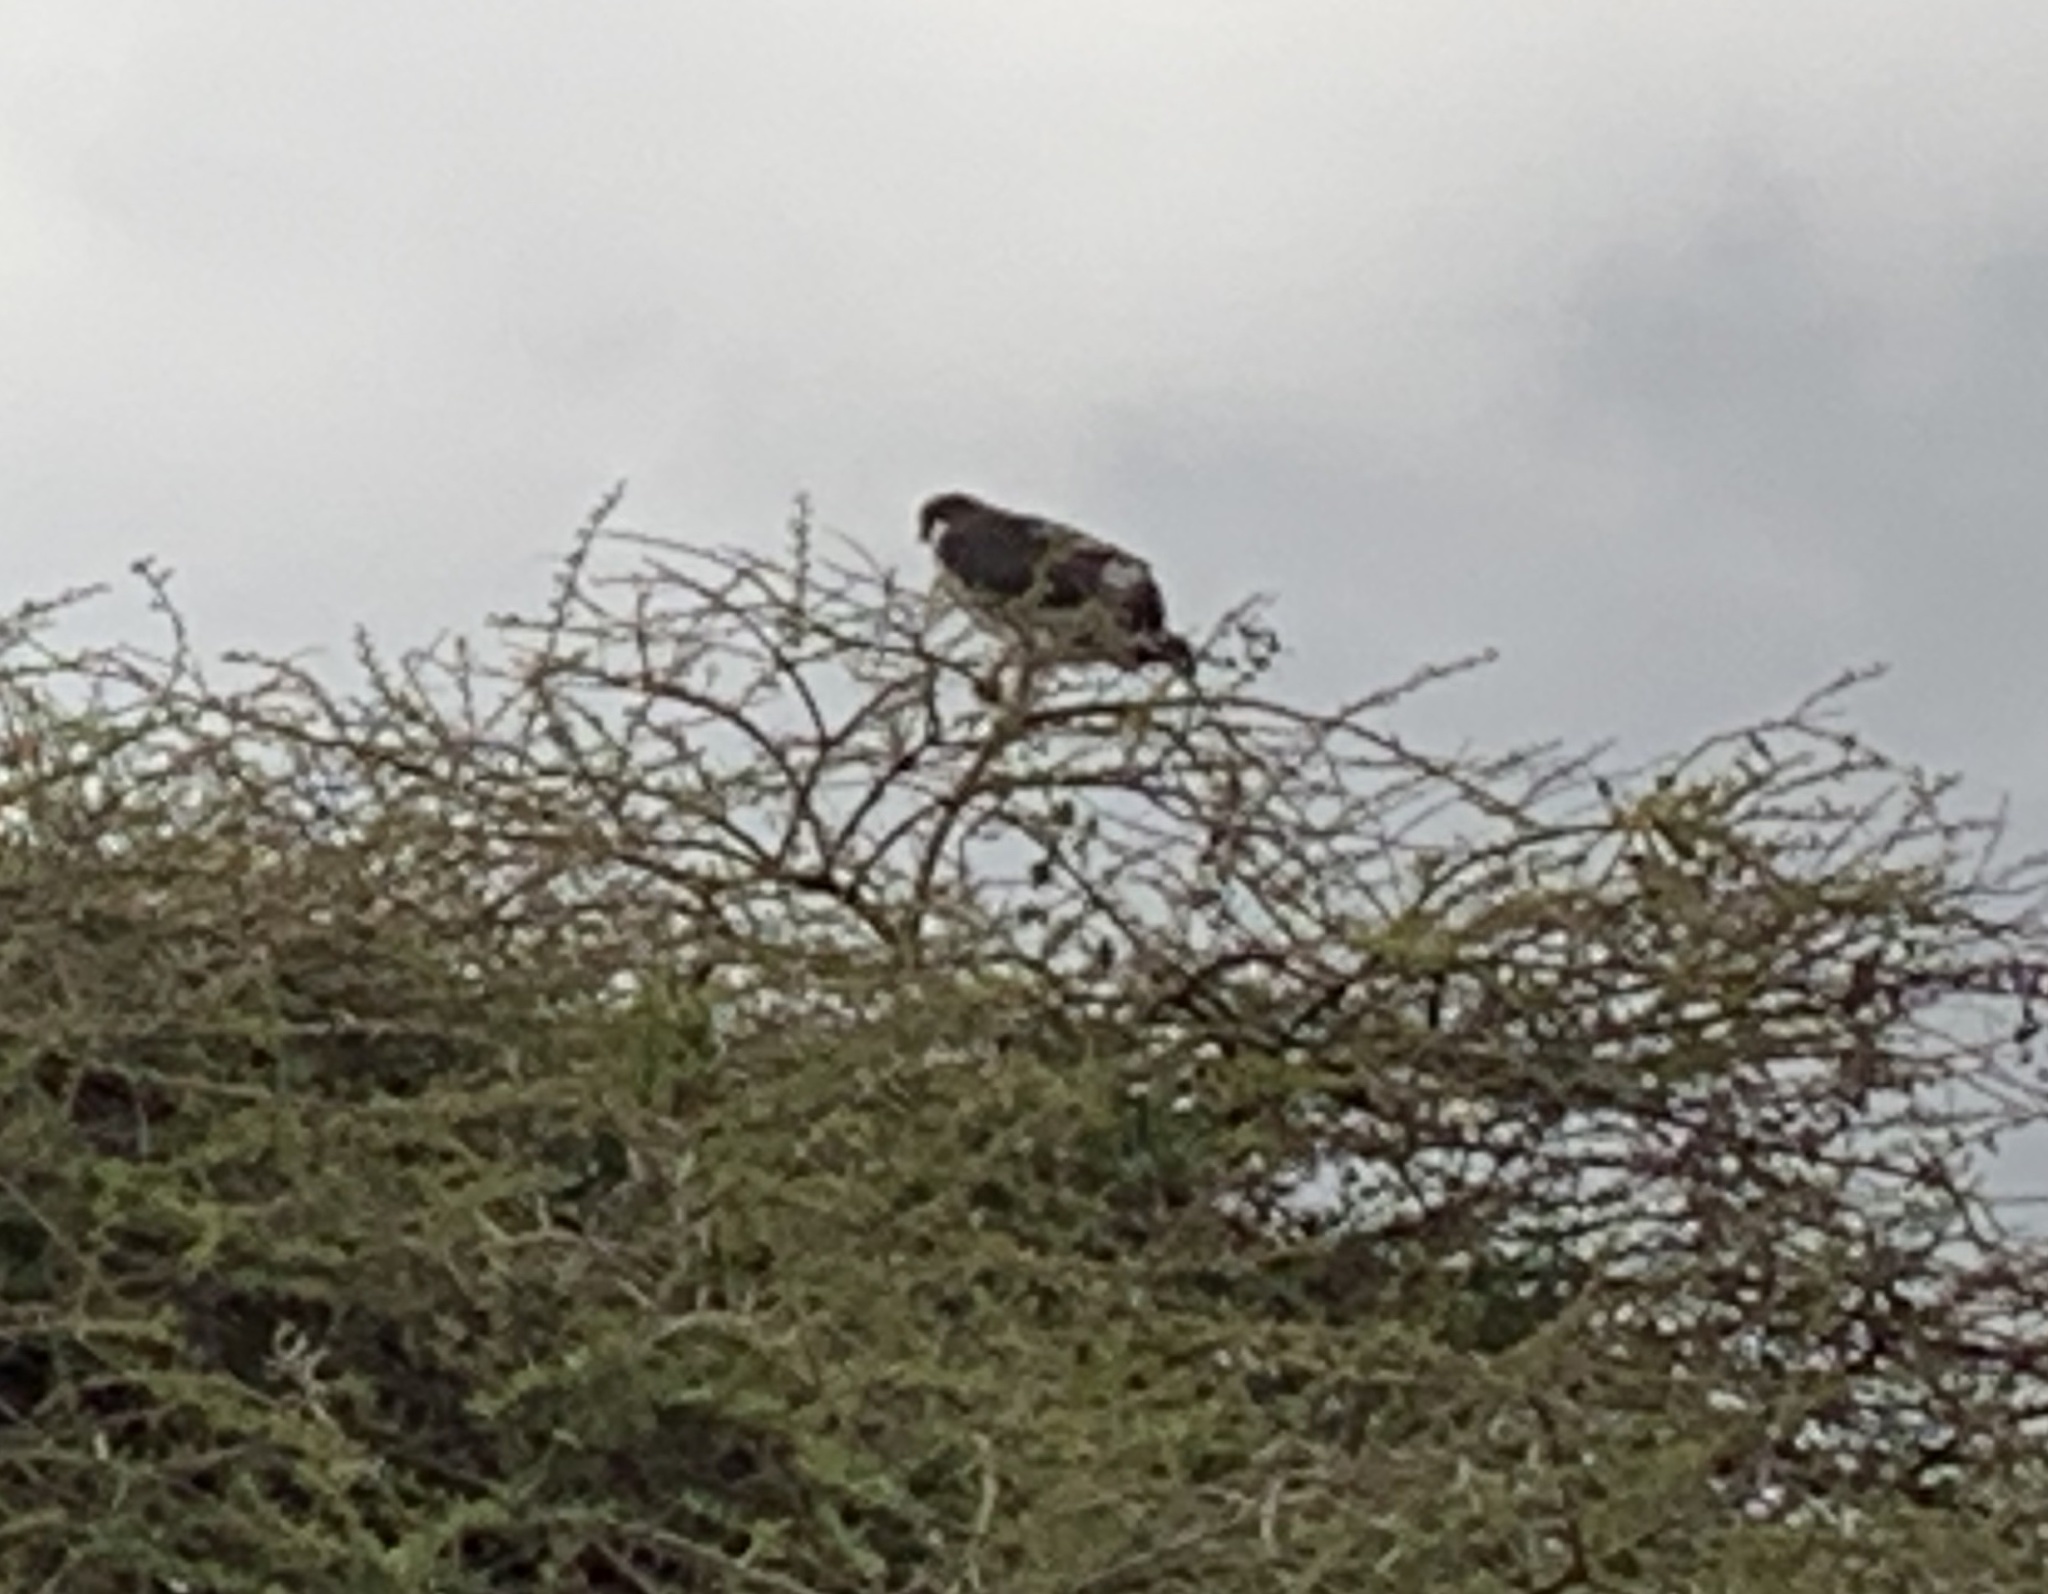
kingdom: Animalia
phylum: Chordata
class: Aves
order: Accipitriformes
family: Accipitridae
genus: Buteo
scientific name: Buteo augur
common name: Augur buzzard
